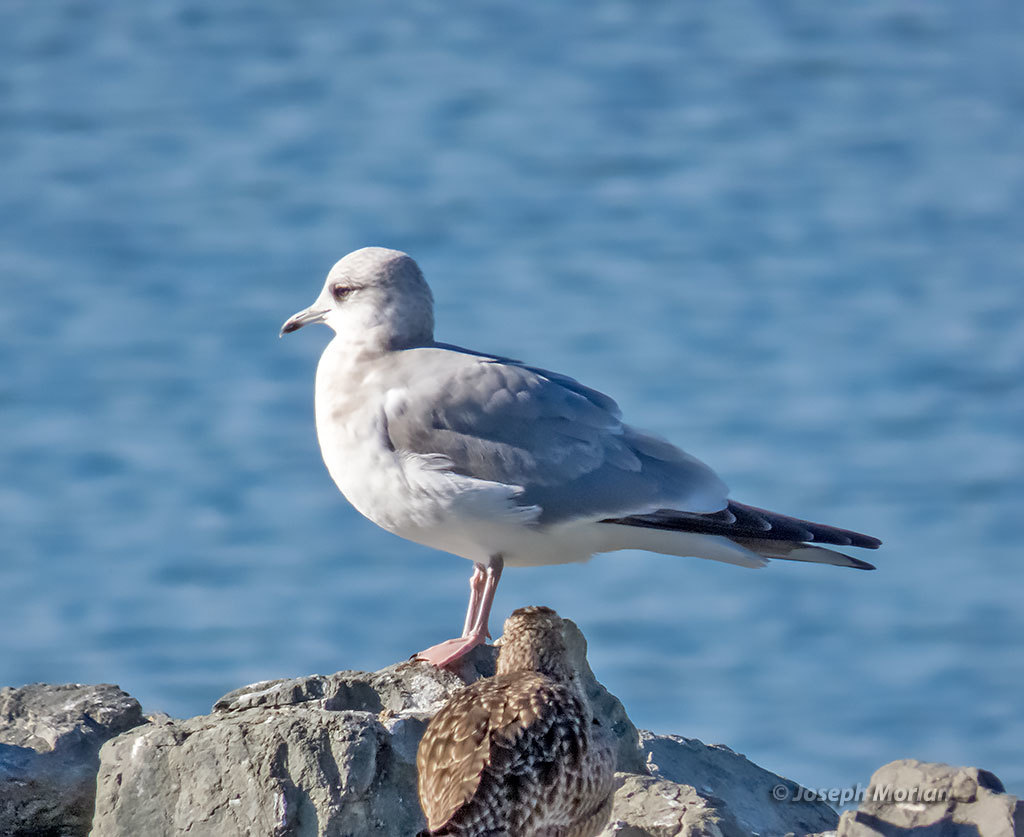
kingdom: Animalia
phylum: Chordata
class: Aves
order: Charadriiformes
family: Laridae
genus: Larus
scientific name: Larus brachyrhynchus
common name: Short-billed gull
